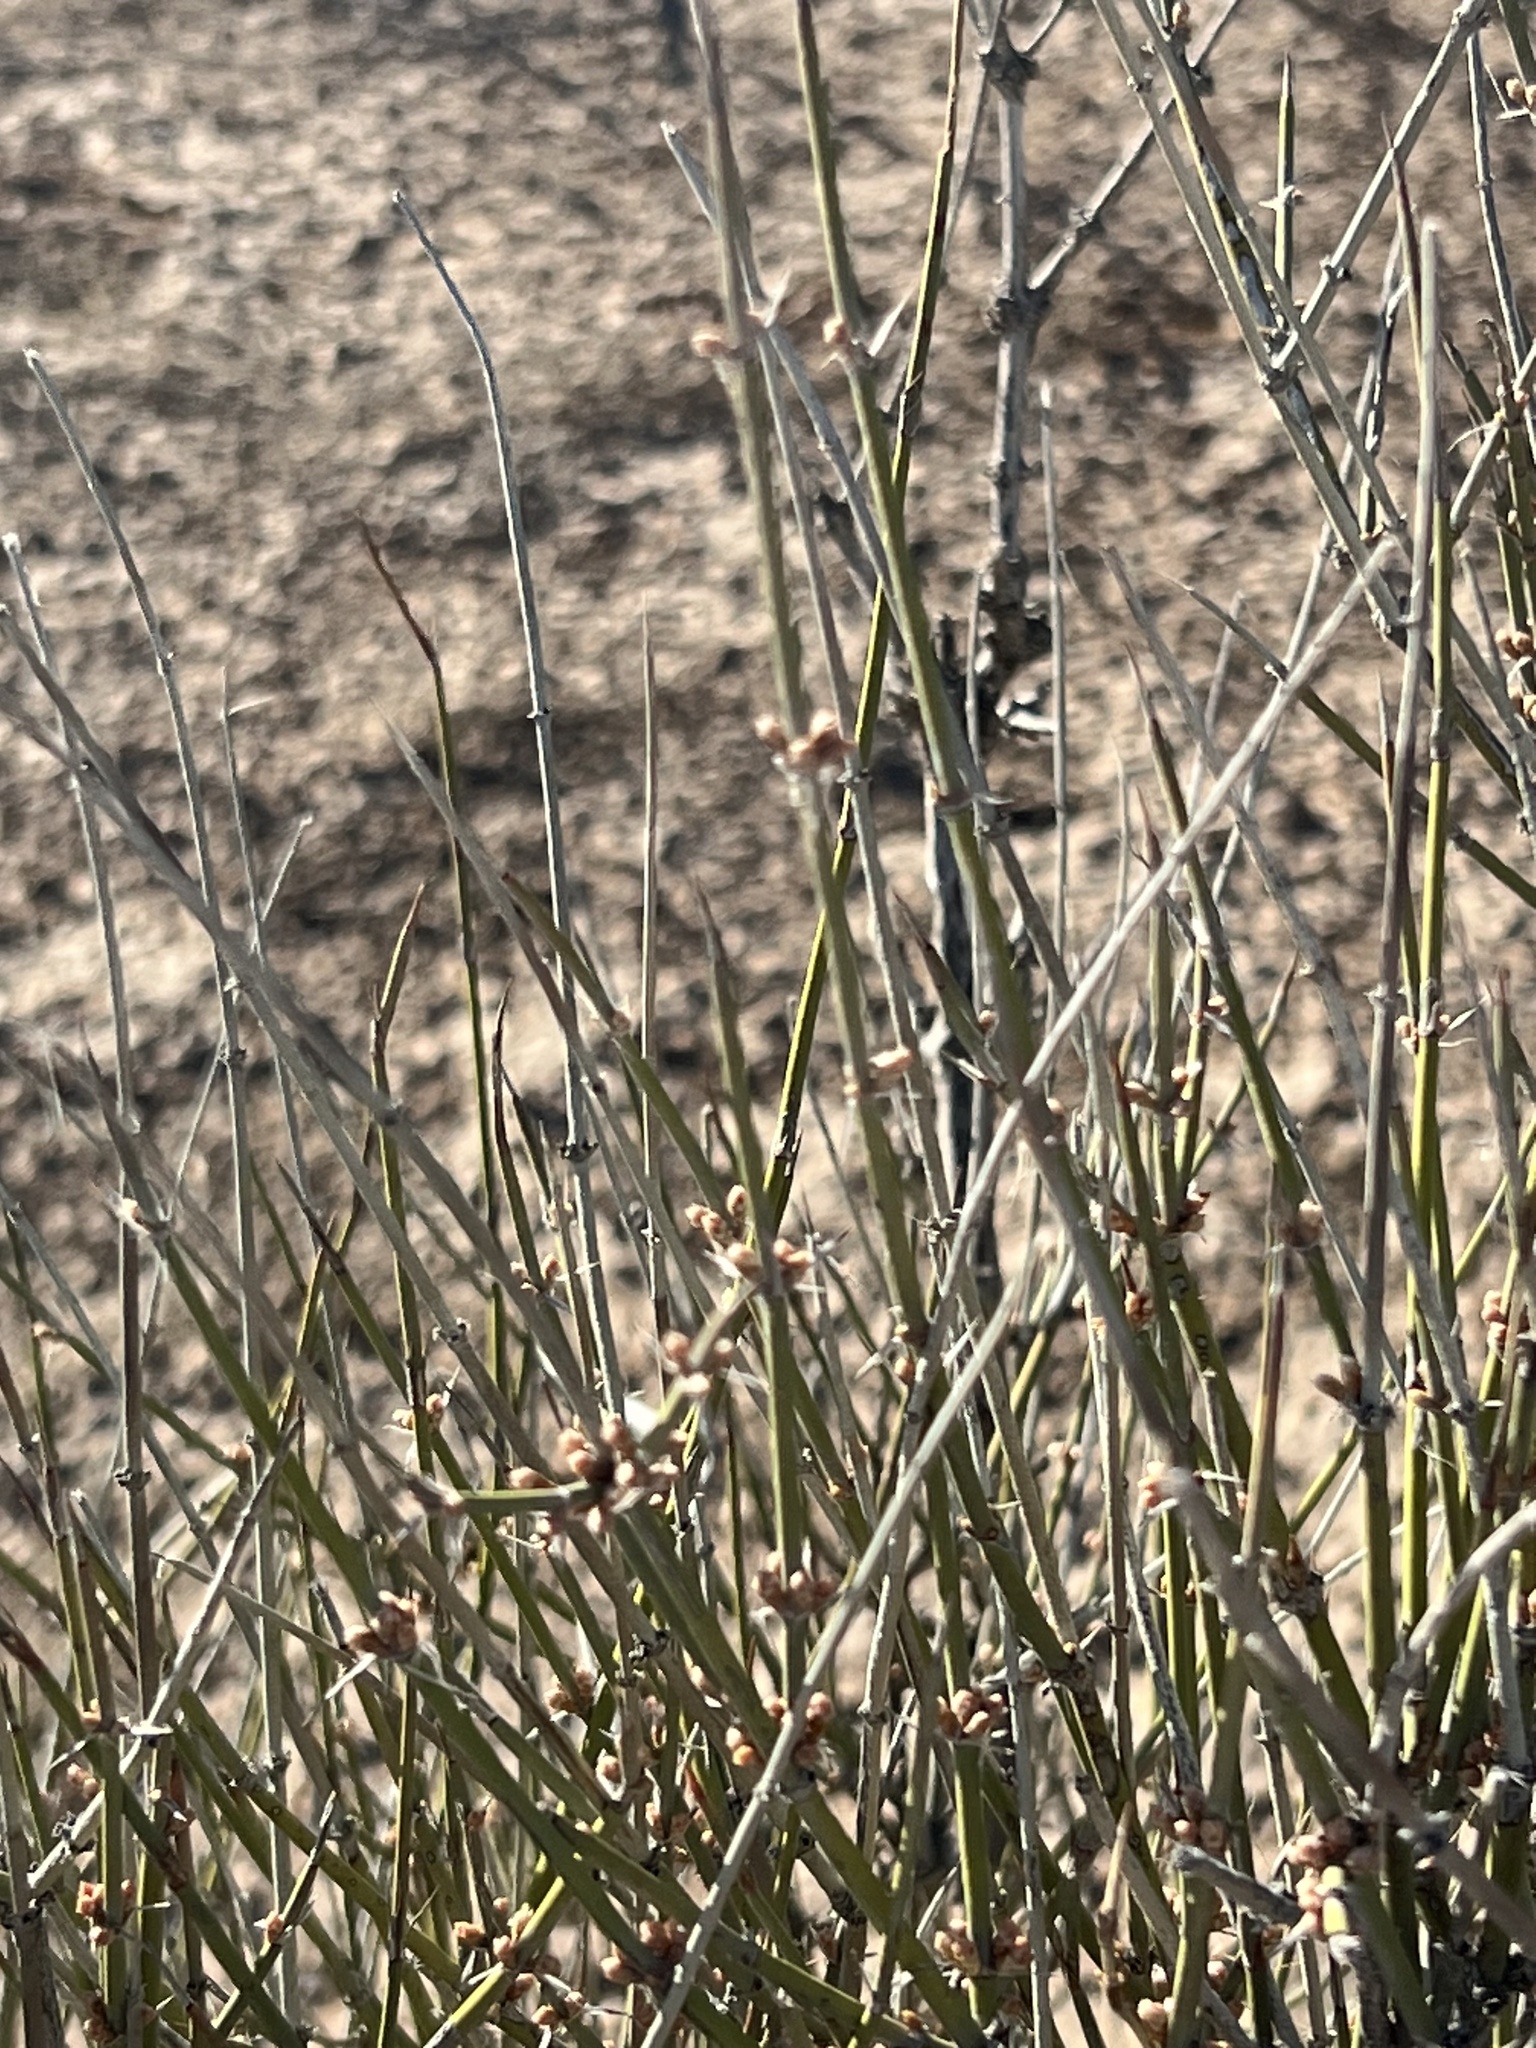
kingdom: Plantae
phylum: Tracheophyta
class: Gnetopsida
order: Ephedrales
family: Ephedraceae
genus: Ephedra
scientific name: Ephedra trifurca
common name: Mexican-tea
